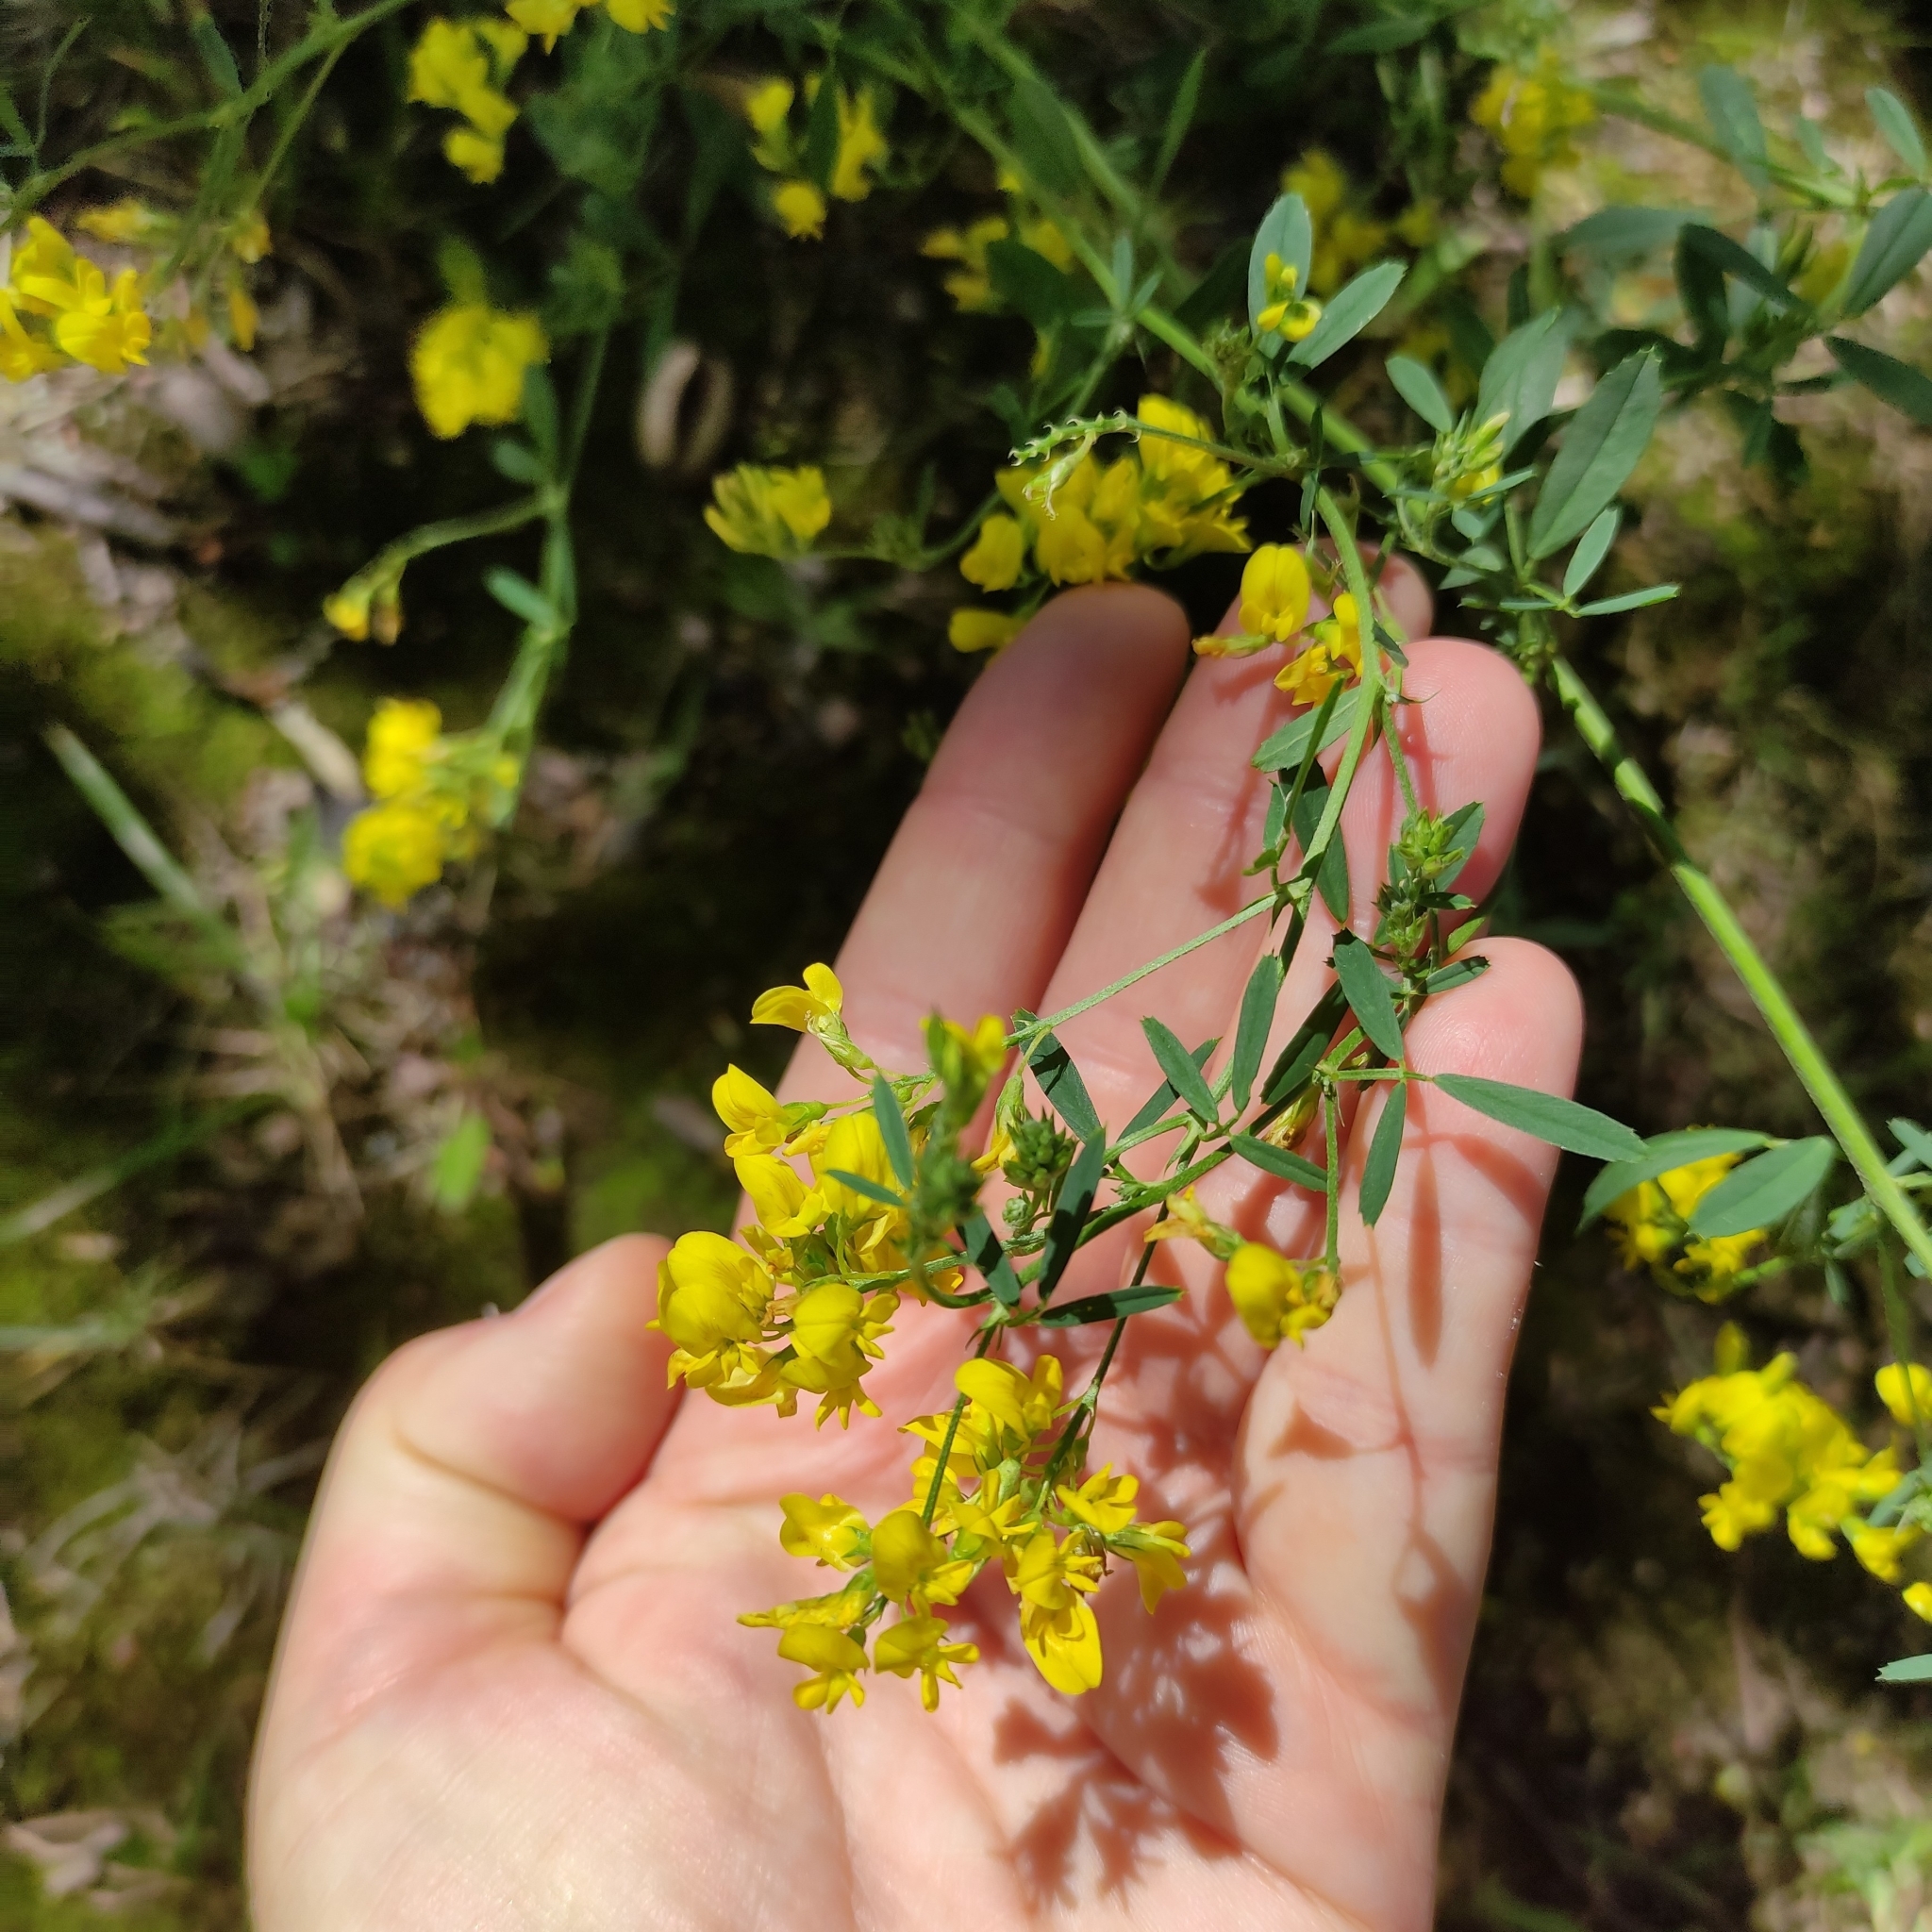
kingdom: Plantae
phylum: Tracheophyta
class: Magnoliopsida
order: Fabales
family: Fabaceae
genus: Medicago
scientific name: Medicago falcata
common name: Sickle medick
